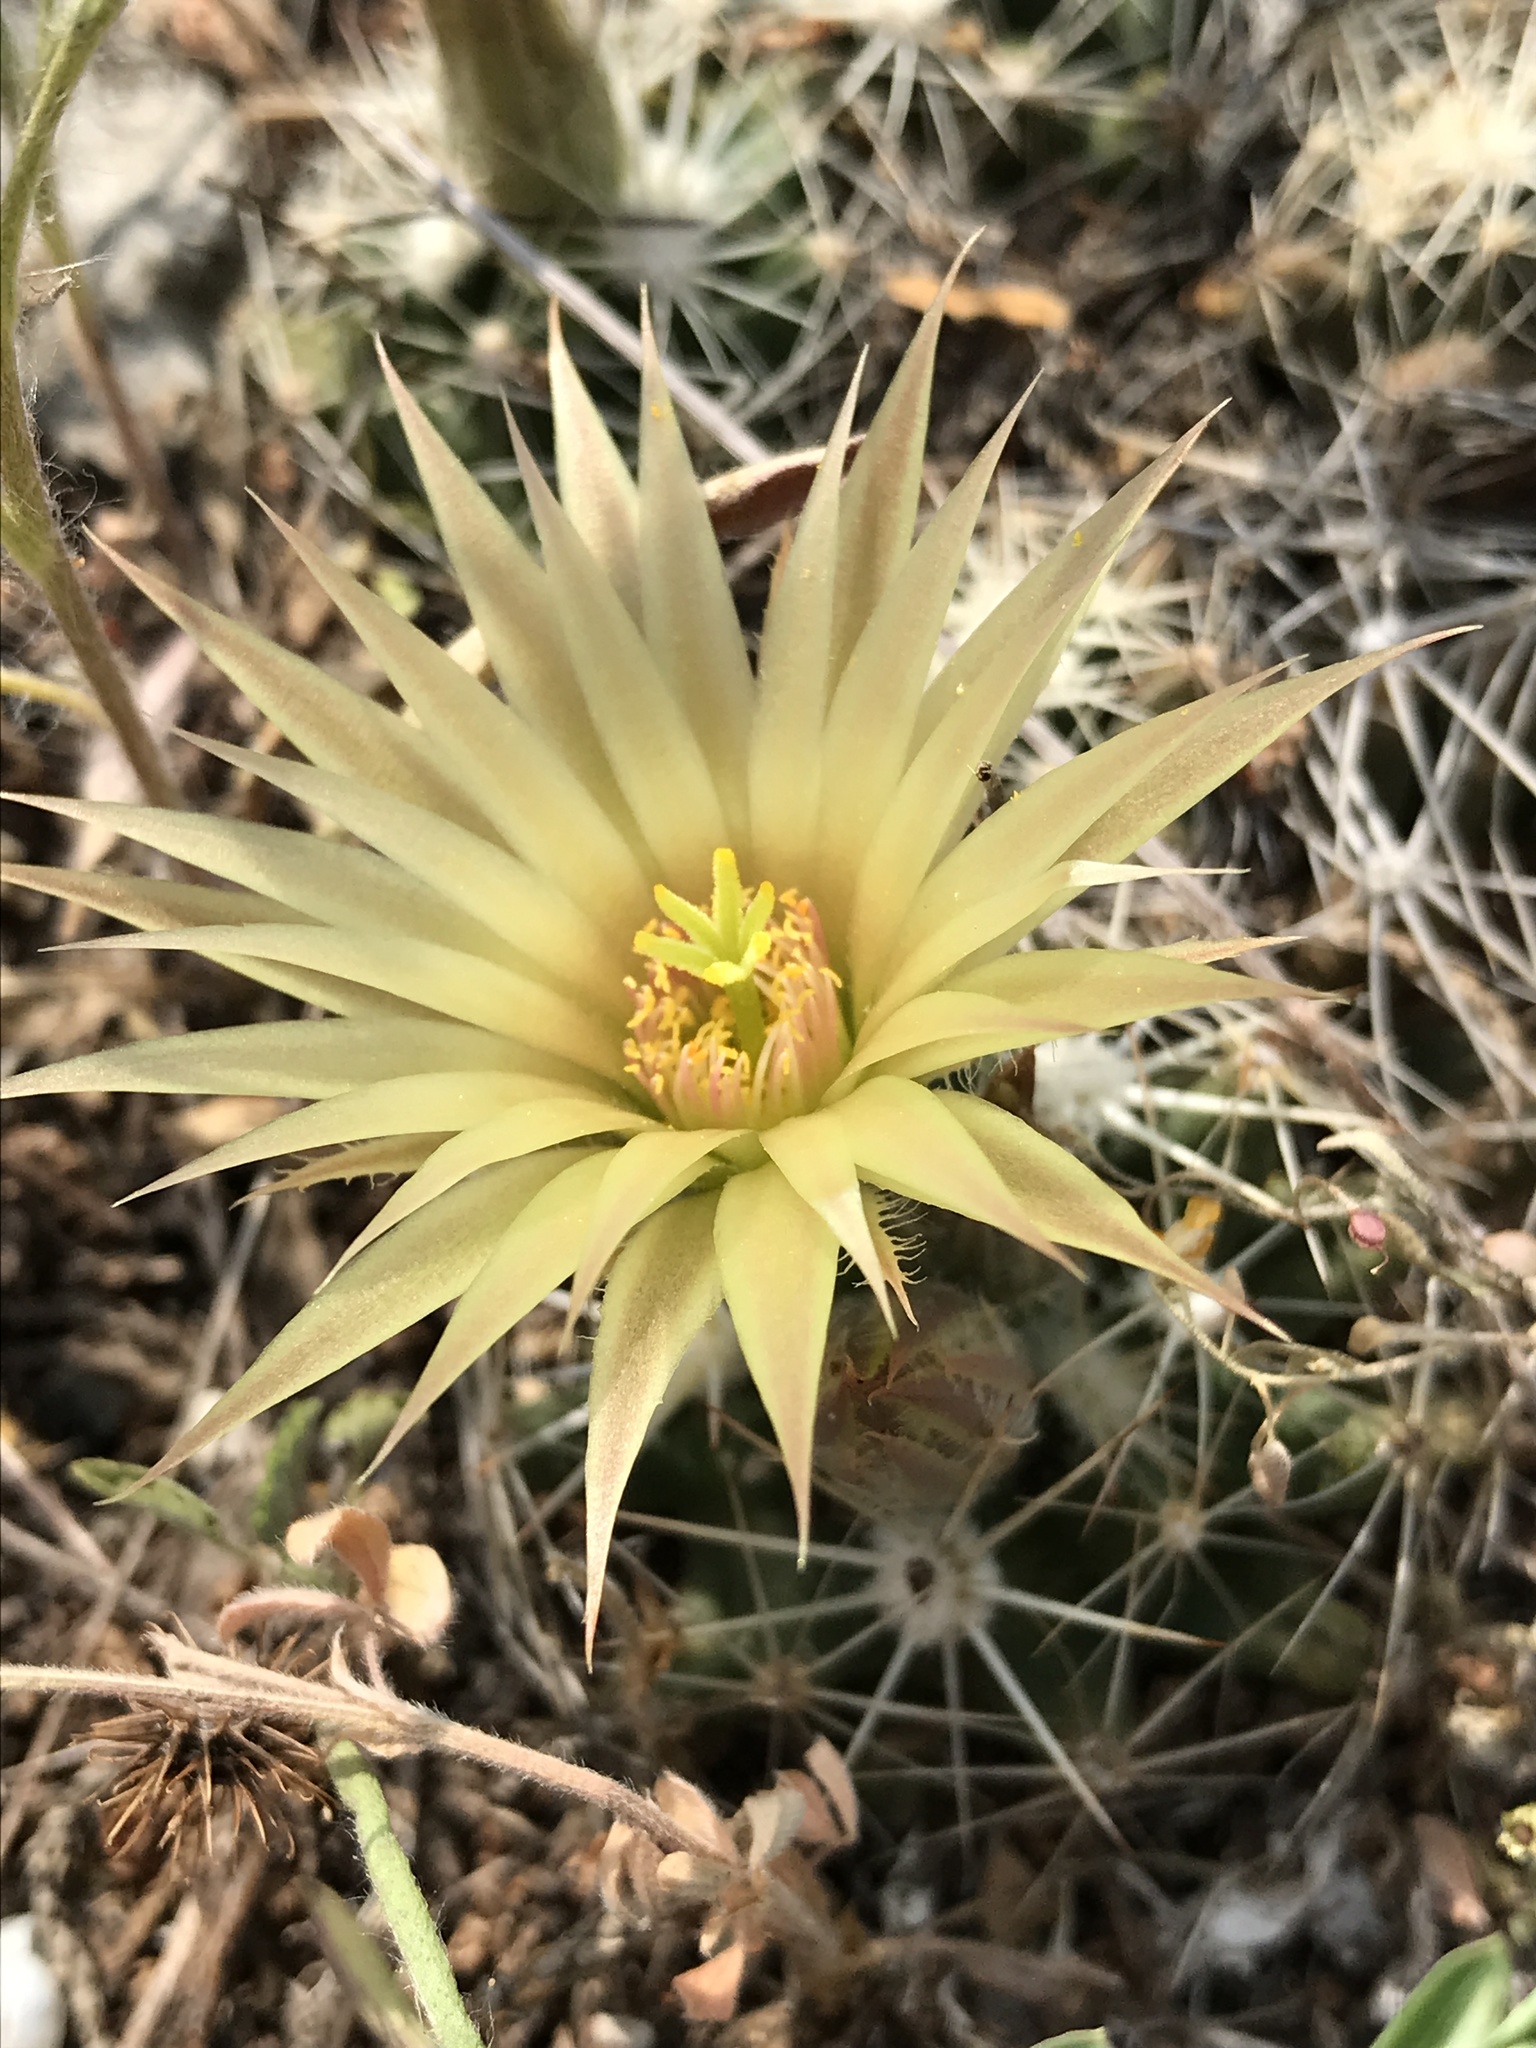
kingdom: Plantae
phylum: Tracheophyta
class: Magnoliopsida
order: Caryophyllales
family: Cactaceae
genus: Pelecyphora
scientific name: Pelecyphora missouriensis
